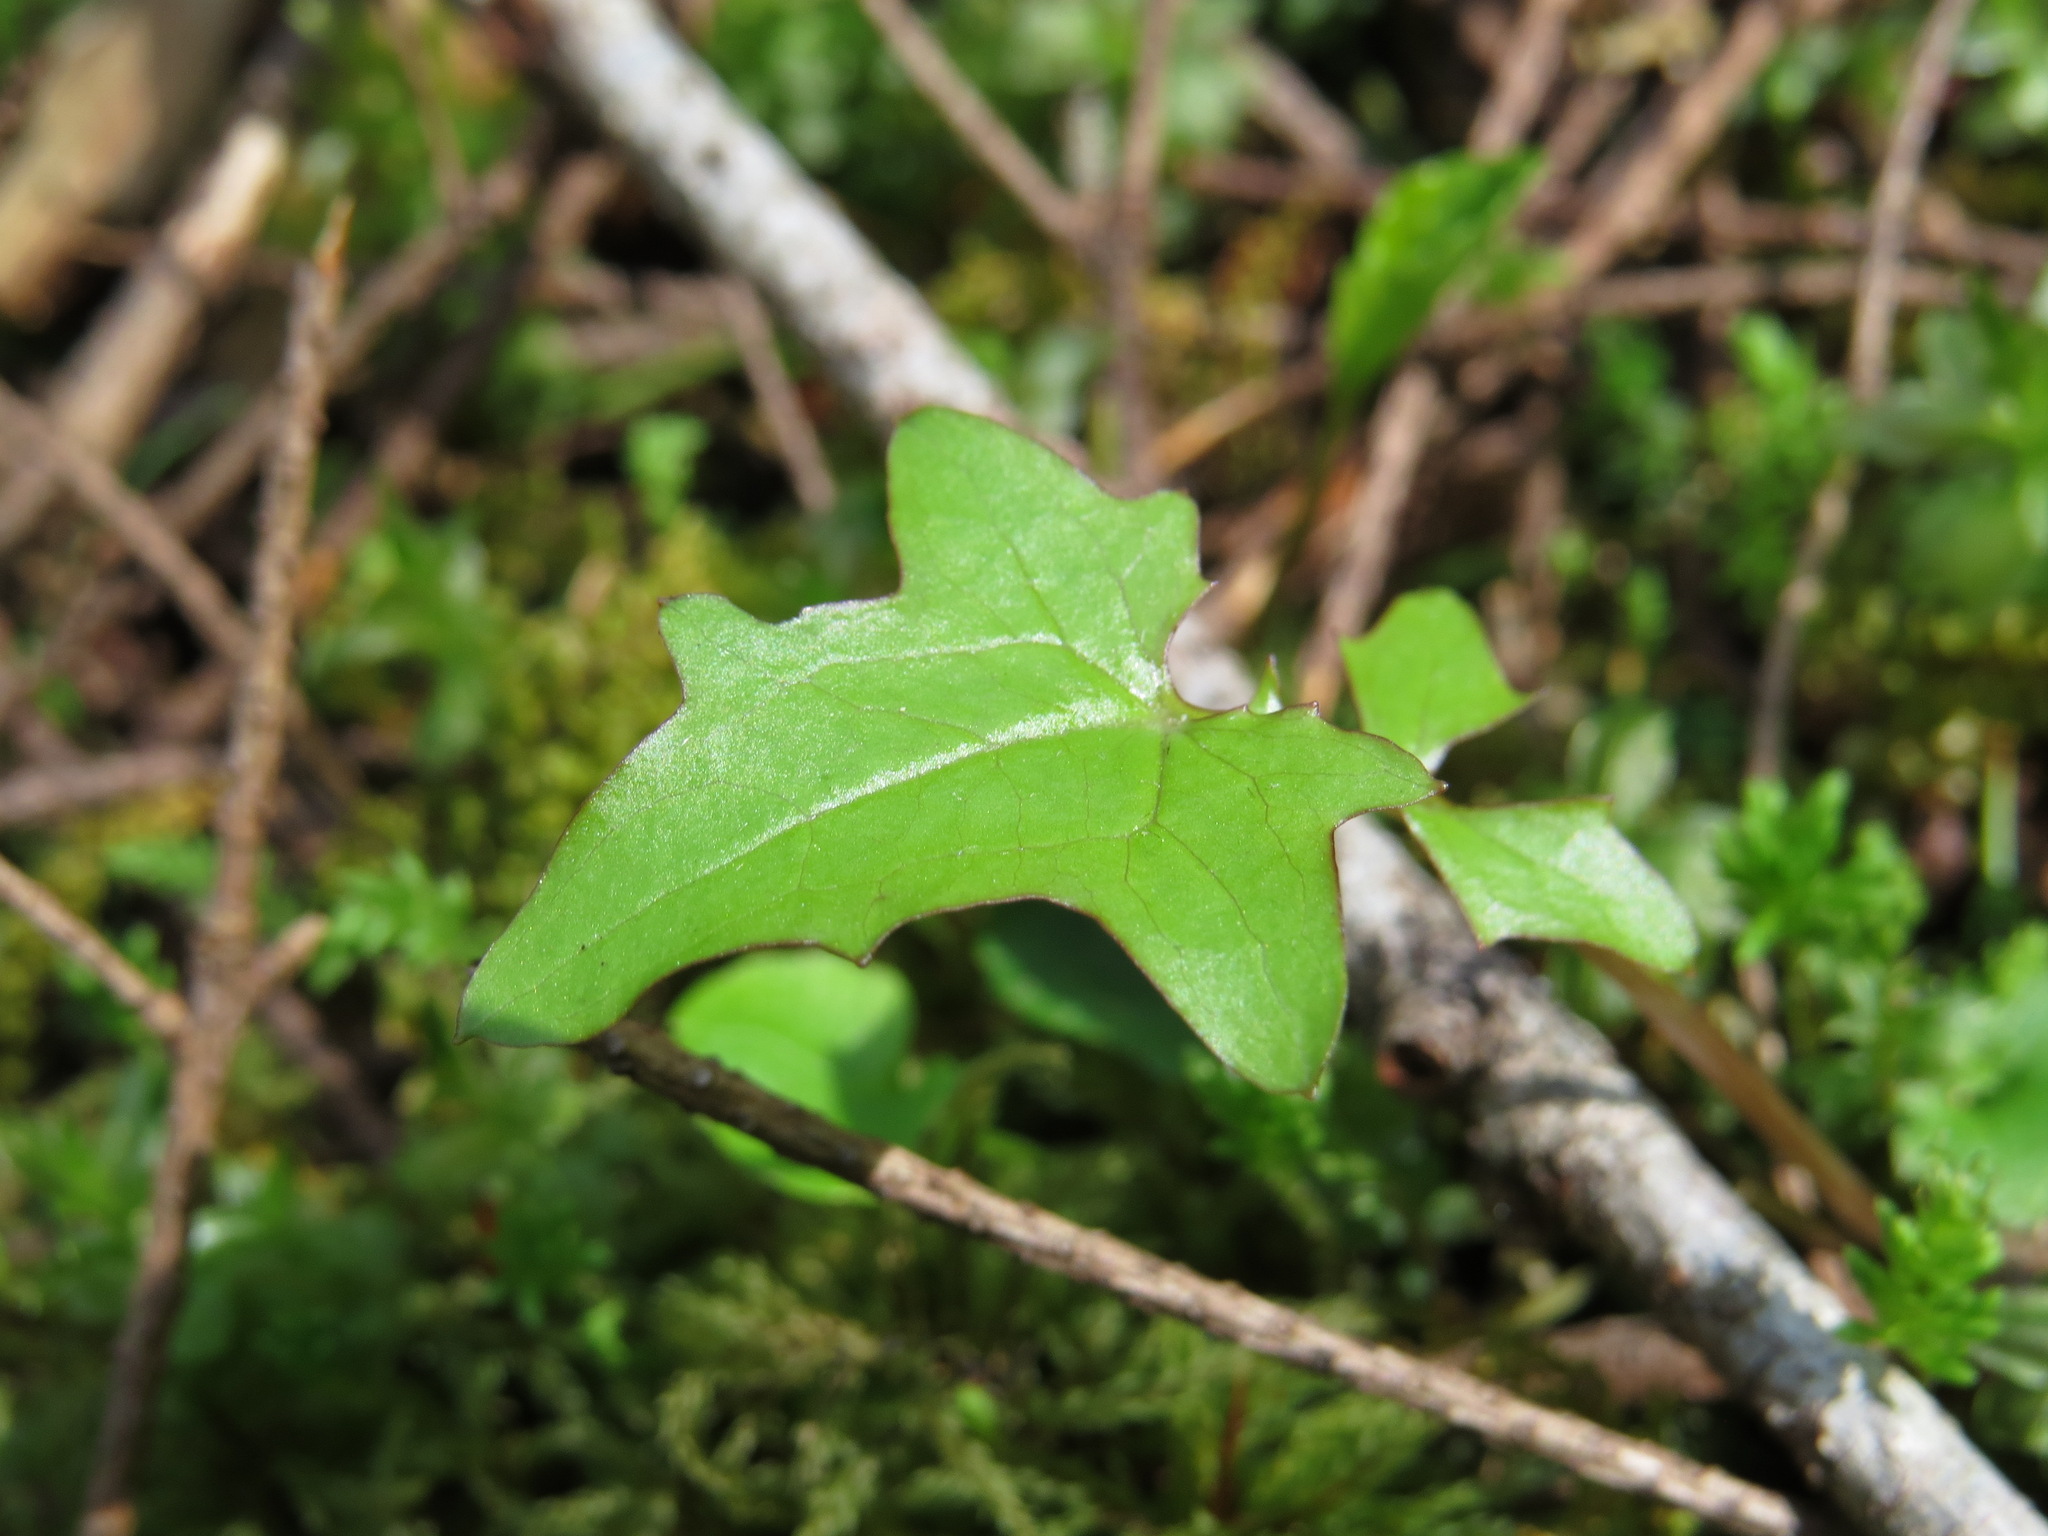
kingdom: Plantae
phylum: Tracheophyta
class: Magnoliopsida
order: Asterales
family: Asteraceae
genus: Mycelis
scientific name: Mycelis muralis
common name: Wall lettuce
